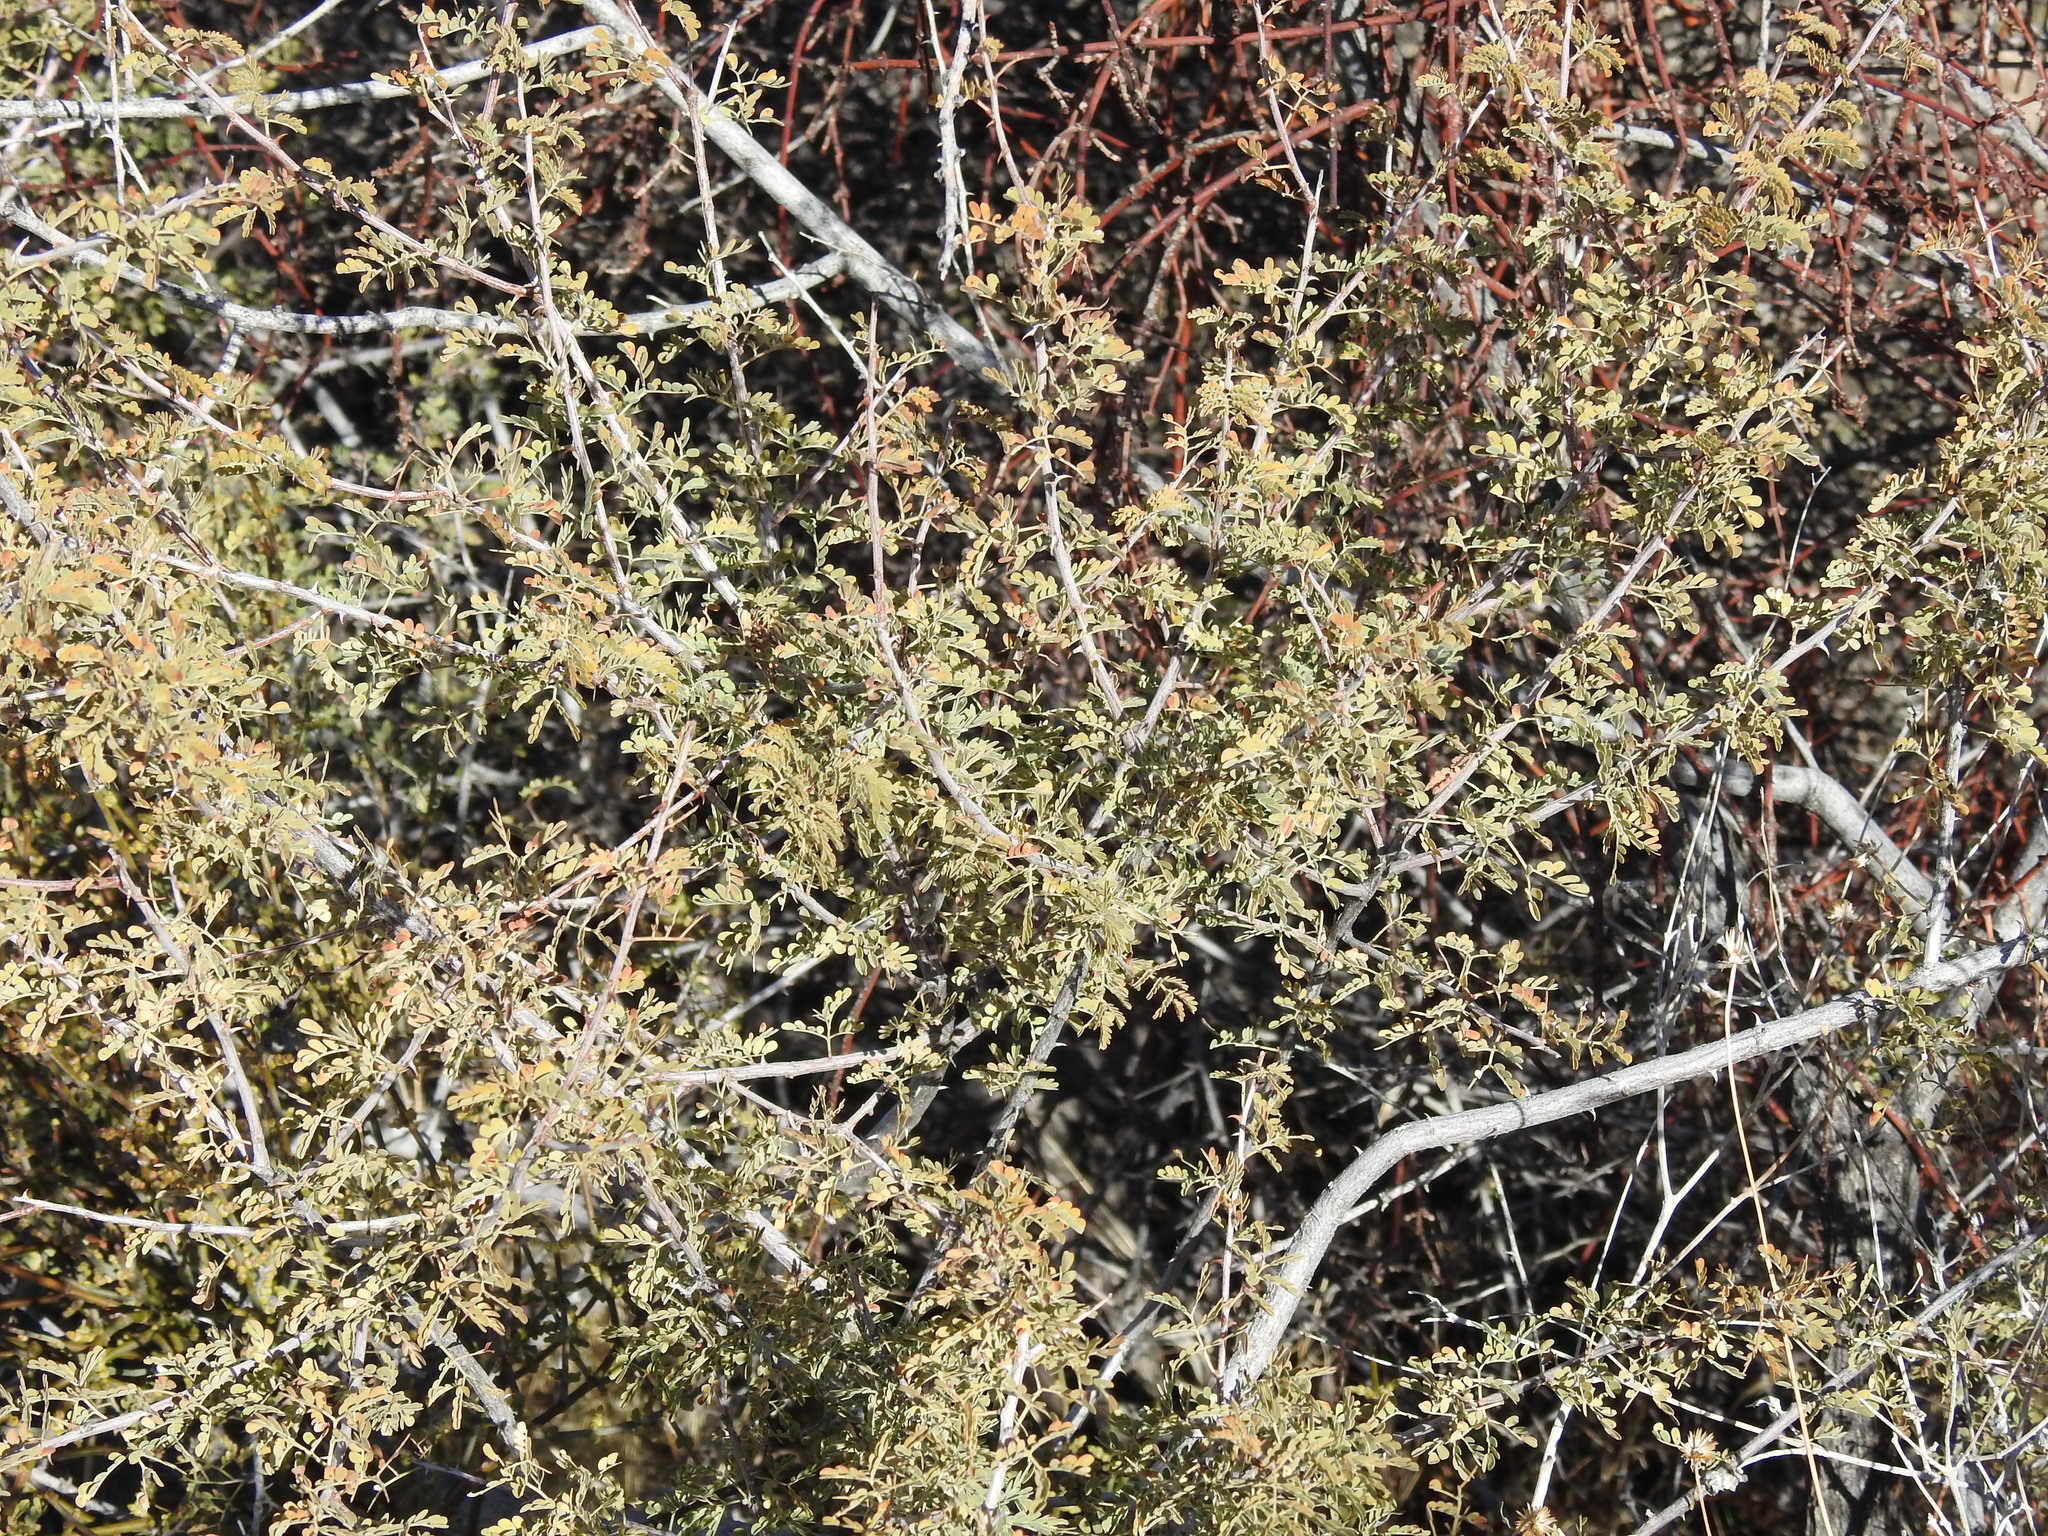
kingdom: Plantae
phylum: Tracheophyta
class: Magnoliopsida
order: Fabales
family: Fabaceae
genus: Senegalia
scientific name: Senegalia greggii
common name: Texas-mimosa
